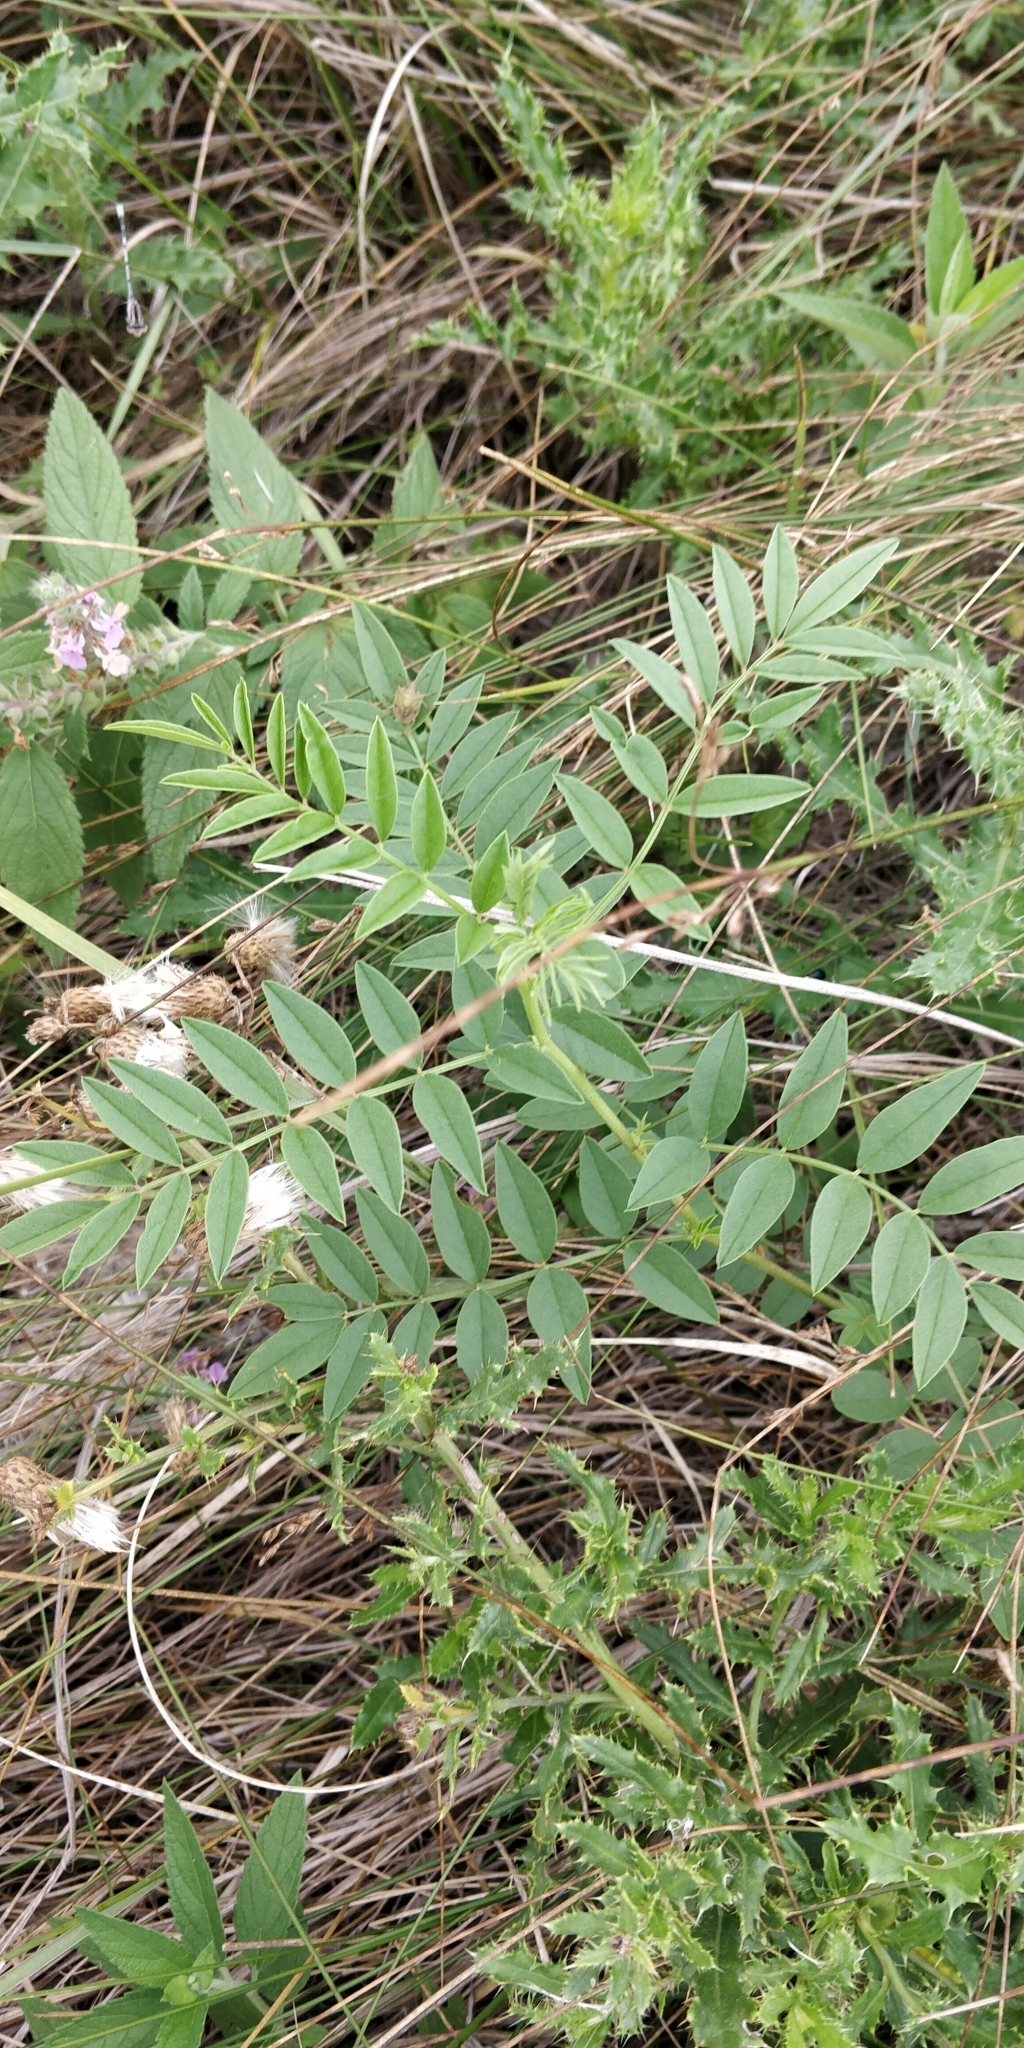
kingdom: Plantae
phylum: Tracheophyta
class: Magnoliopsida
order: Fabales
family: Fabaceae
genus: Glycyrrhiza
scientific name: Glycyrrhiza lepidota
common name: American liquorice
